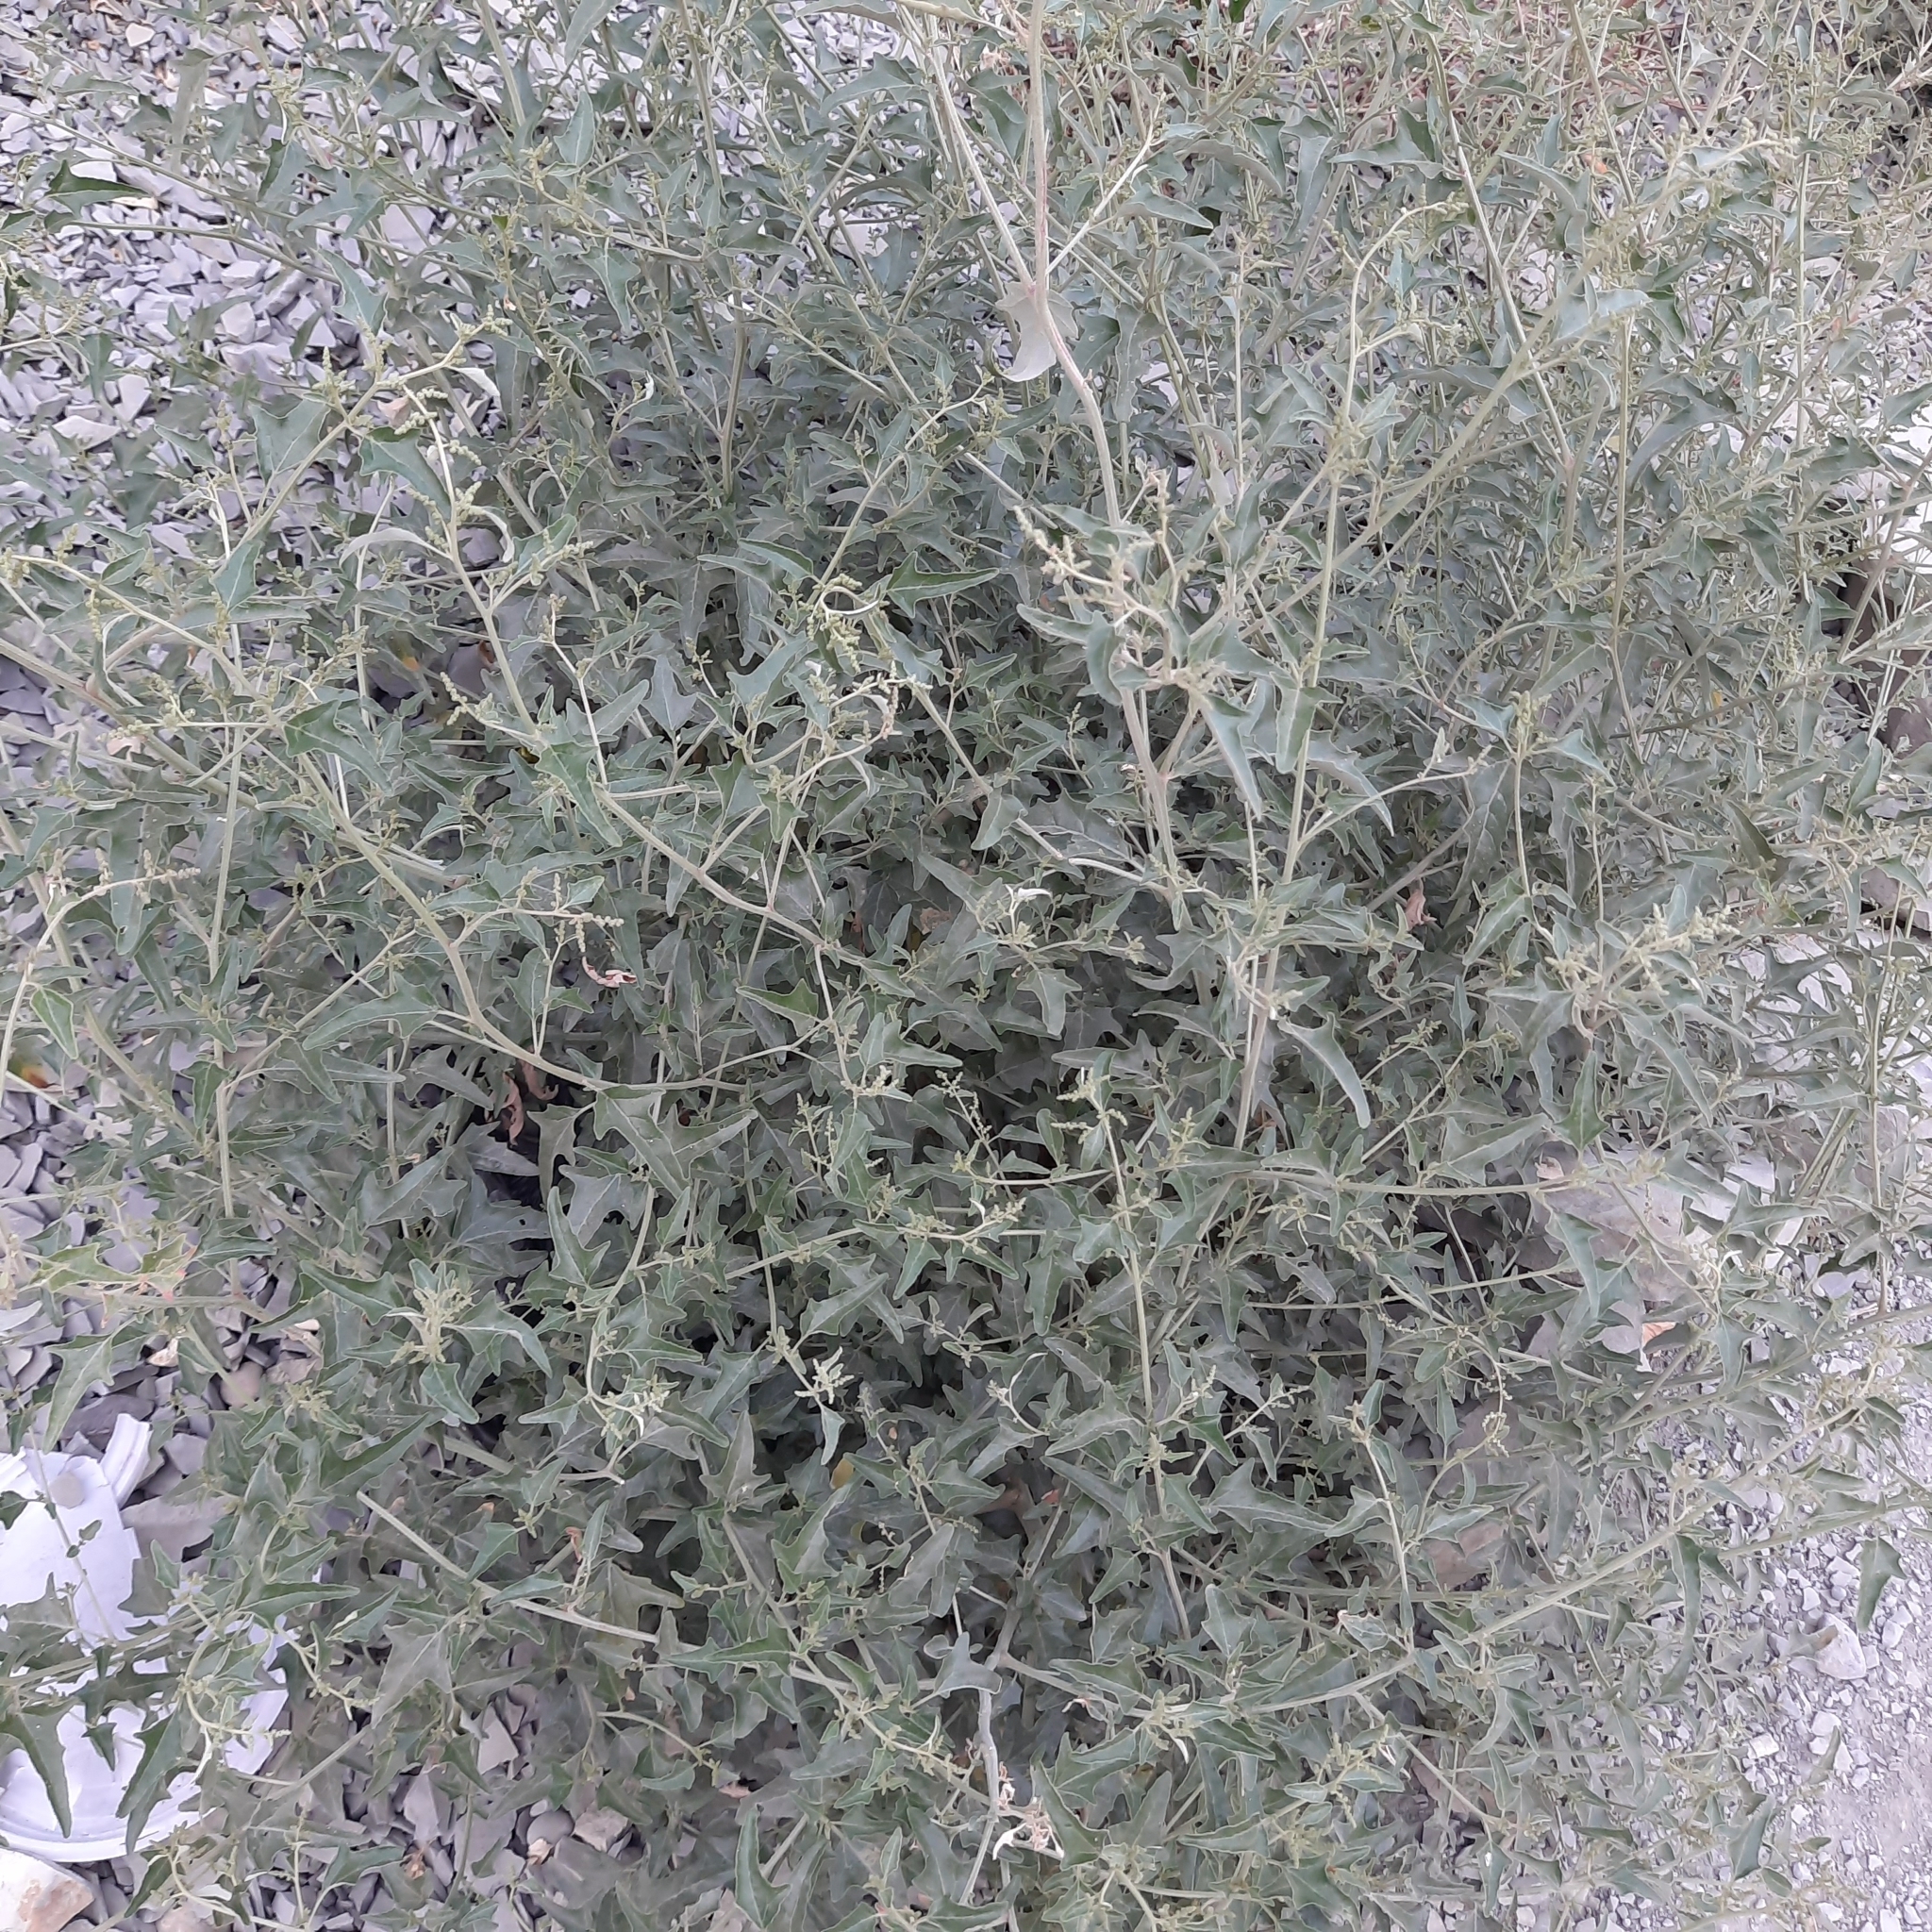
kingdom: Plantae
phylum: Tracheophyta
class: Magnoliopsida
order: Caryophyllales
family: Amaranthaceae
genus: Atriplex
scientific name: Atriplex tatarica
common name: Tatarian orache
